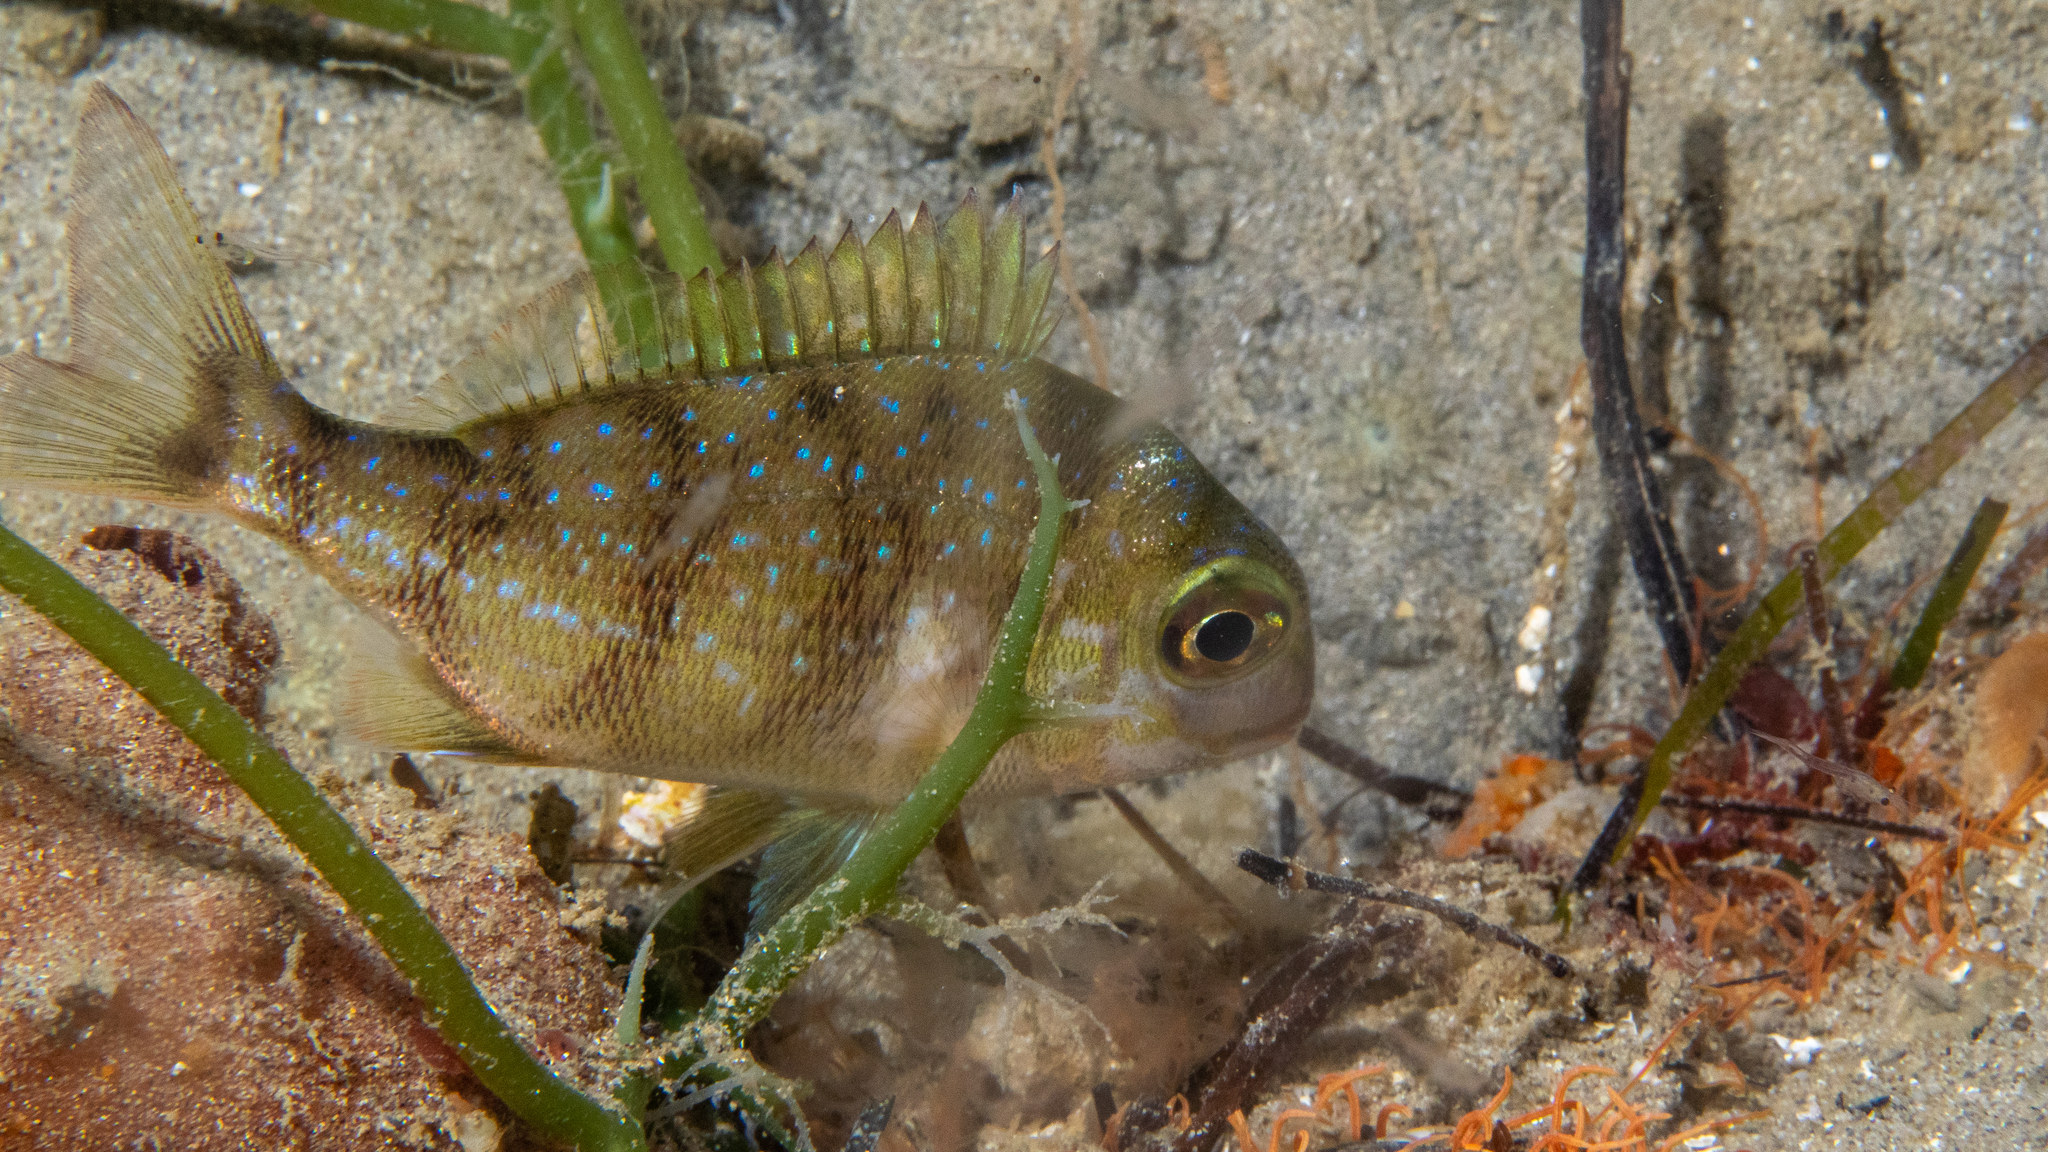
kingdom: Animalia
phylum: Chordata
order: Perciformes
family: Sparidae
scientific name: Sparidae
